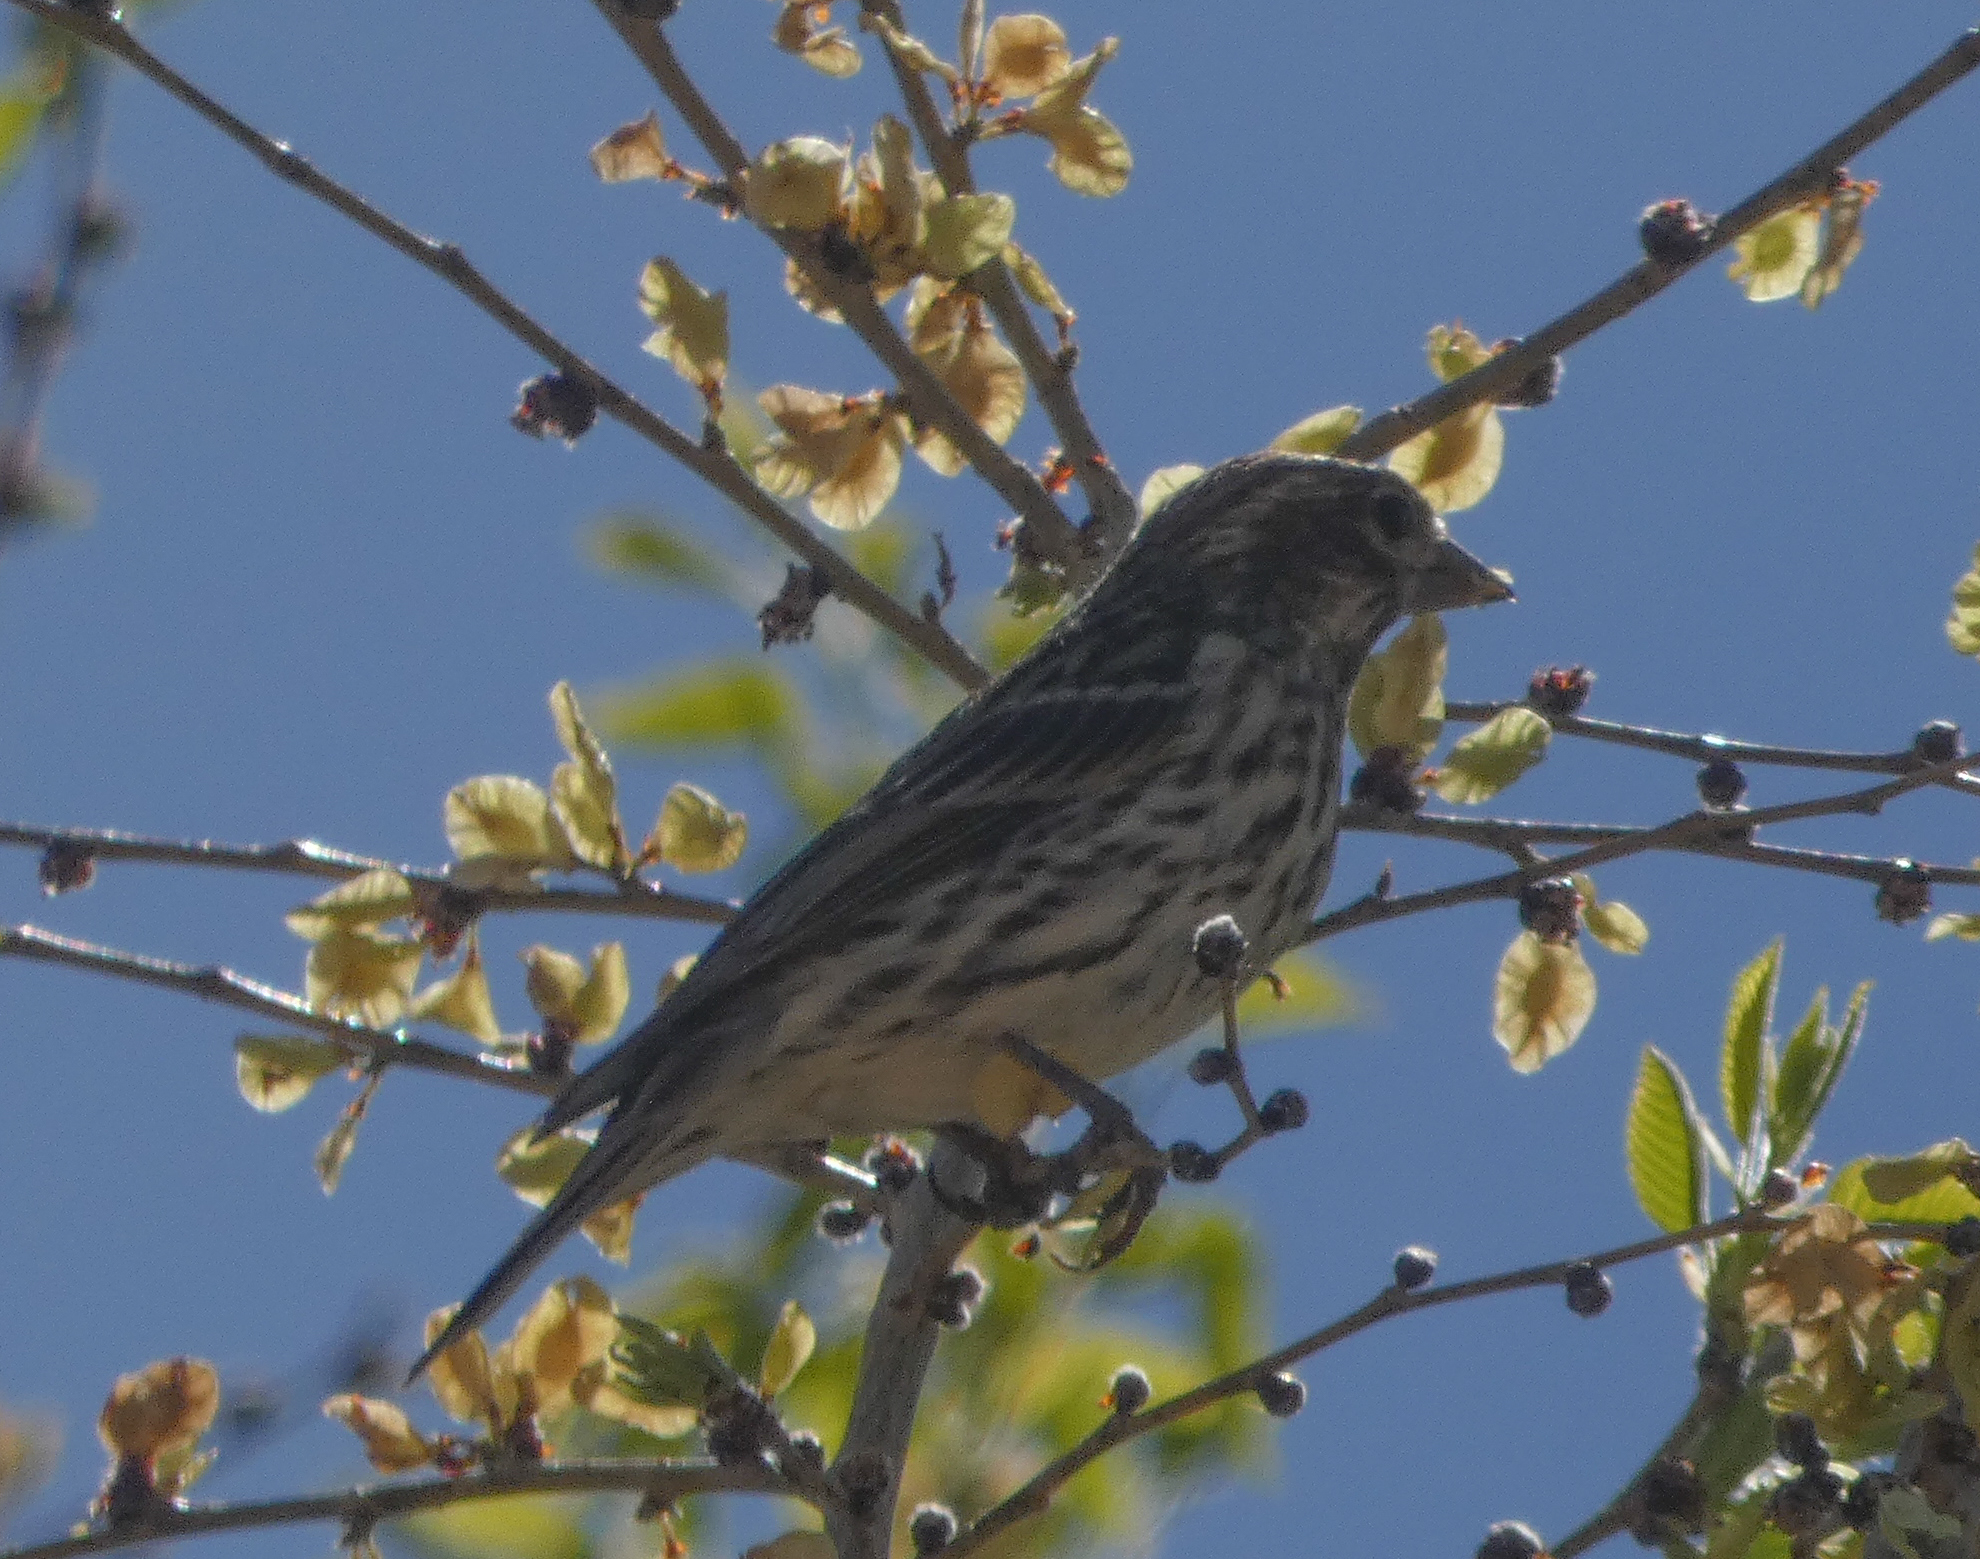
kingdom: Animalia
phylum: Chordata
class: Aves
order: Passeriformes
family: Fringillidae
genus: Haemorhous
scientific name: Haemorhous cassinii
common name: Cassin's finch
